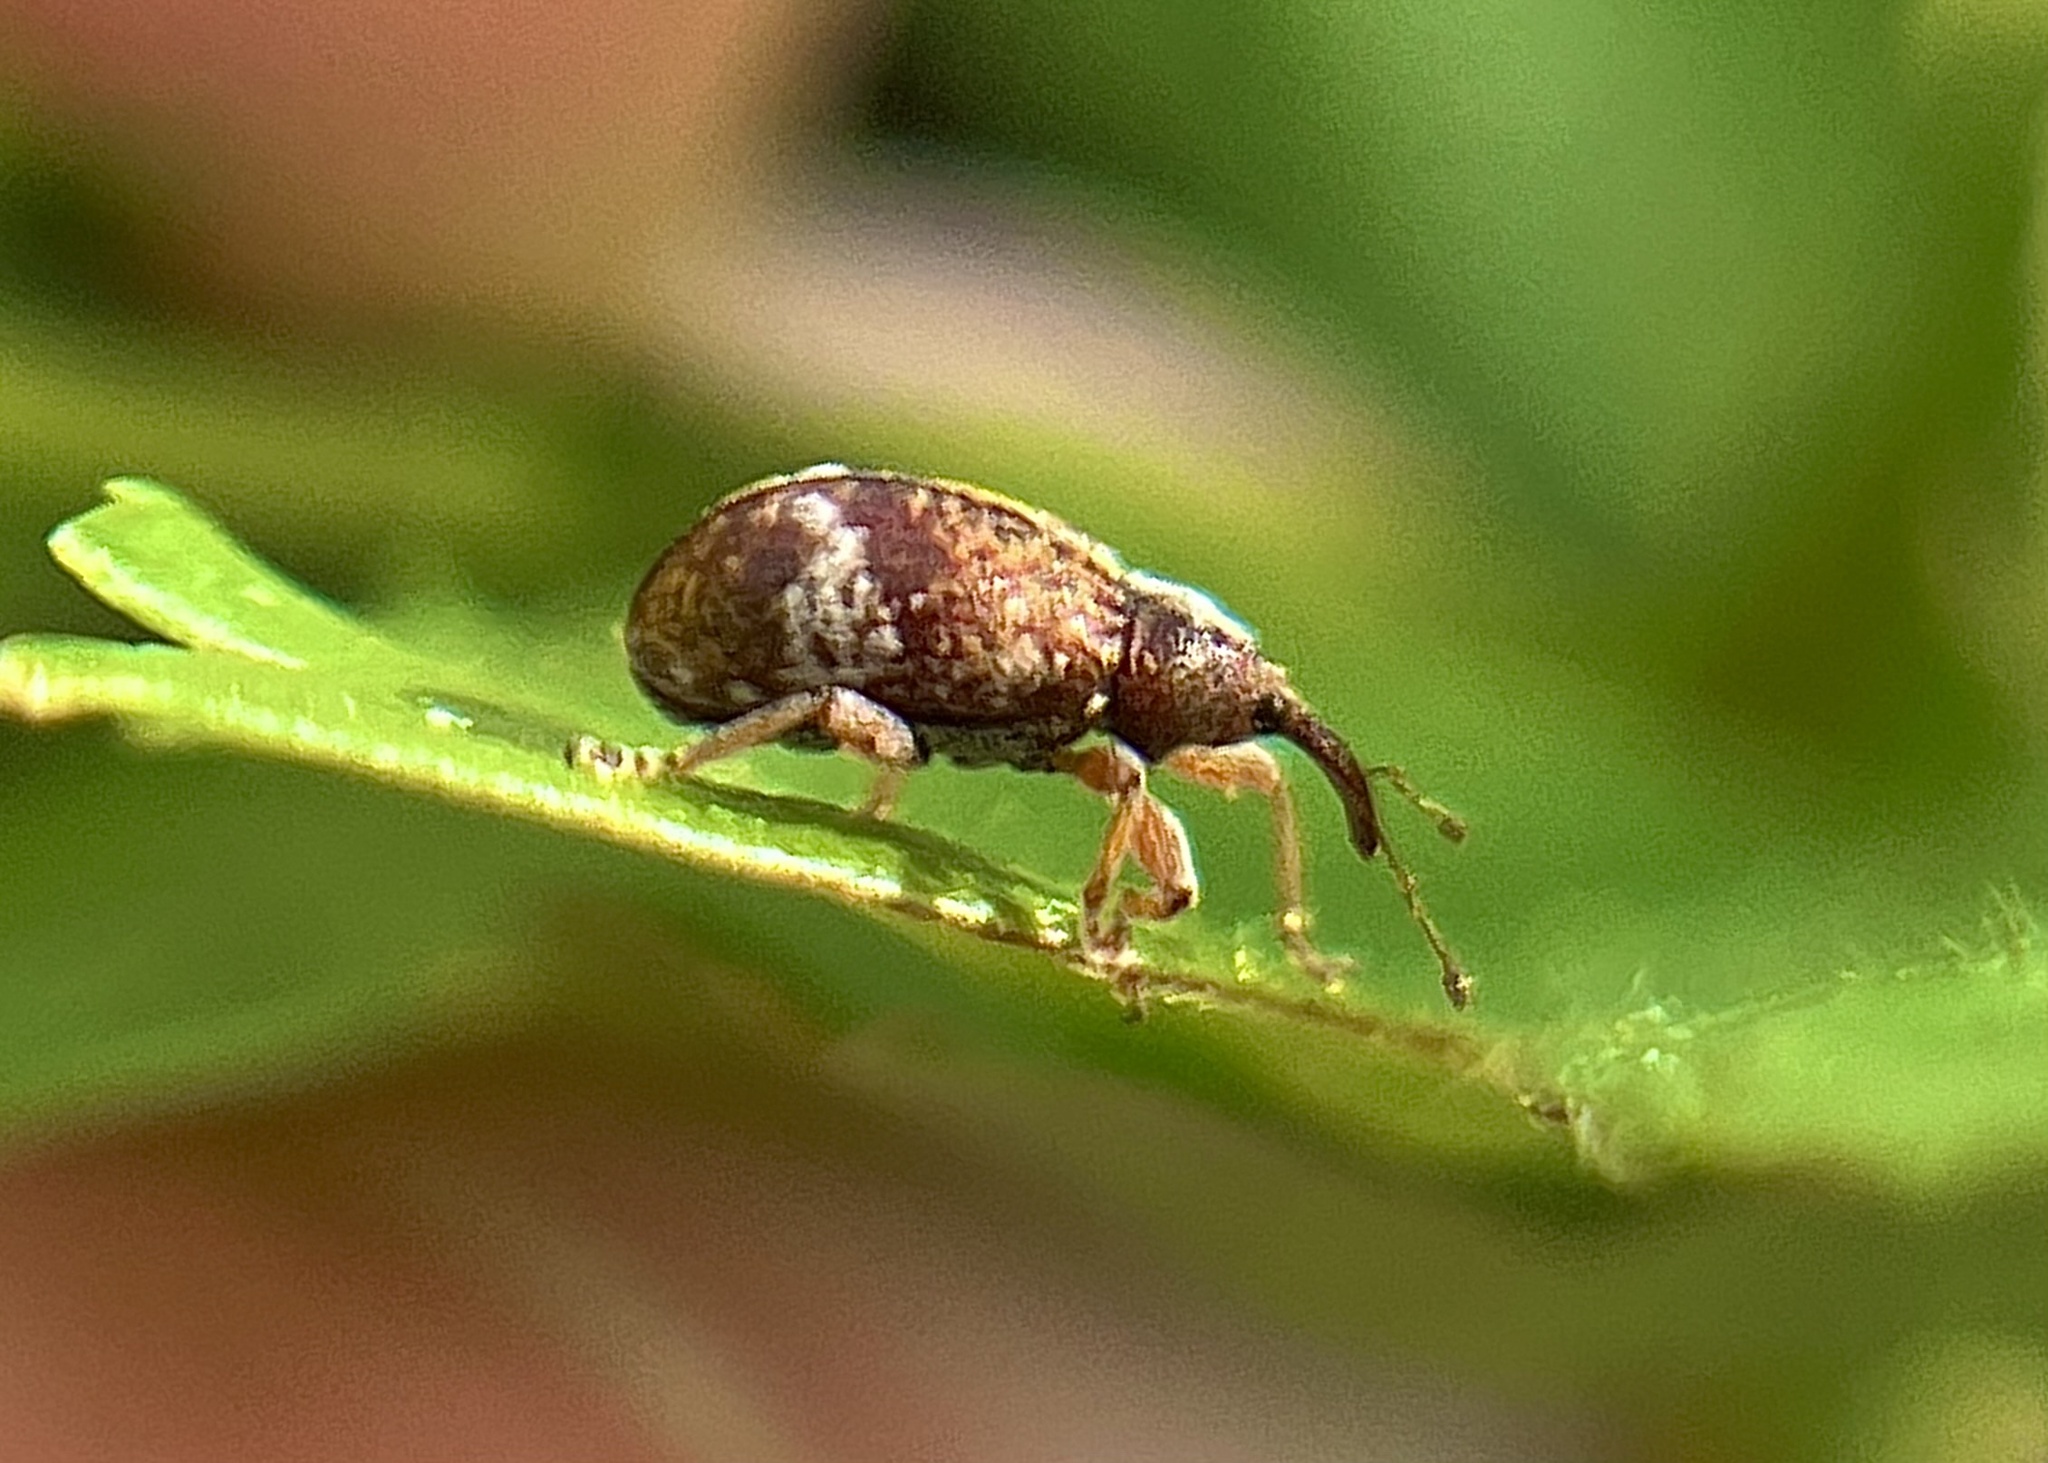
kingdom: Animalia
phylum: Arthropoda
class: Insecta
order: Coleoptera
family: Curculionidae
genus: Anthonomus
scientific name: Anthonomus pedicularius
